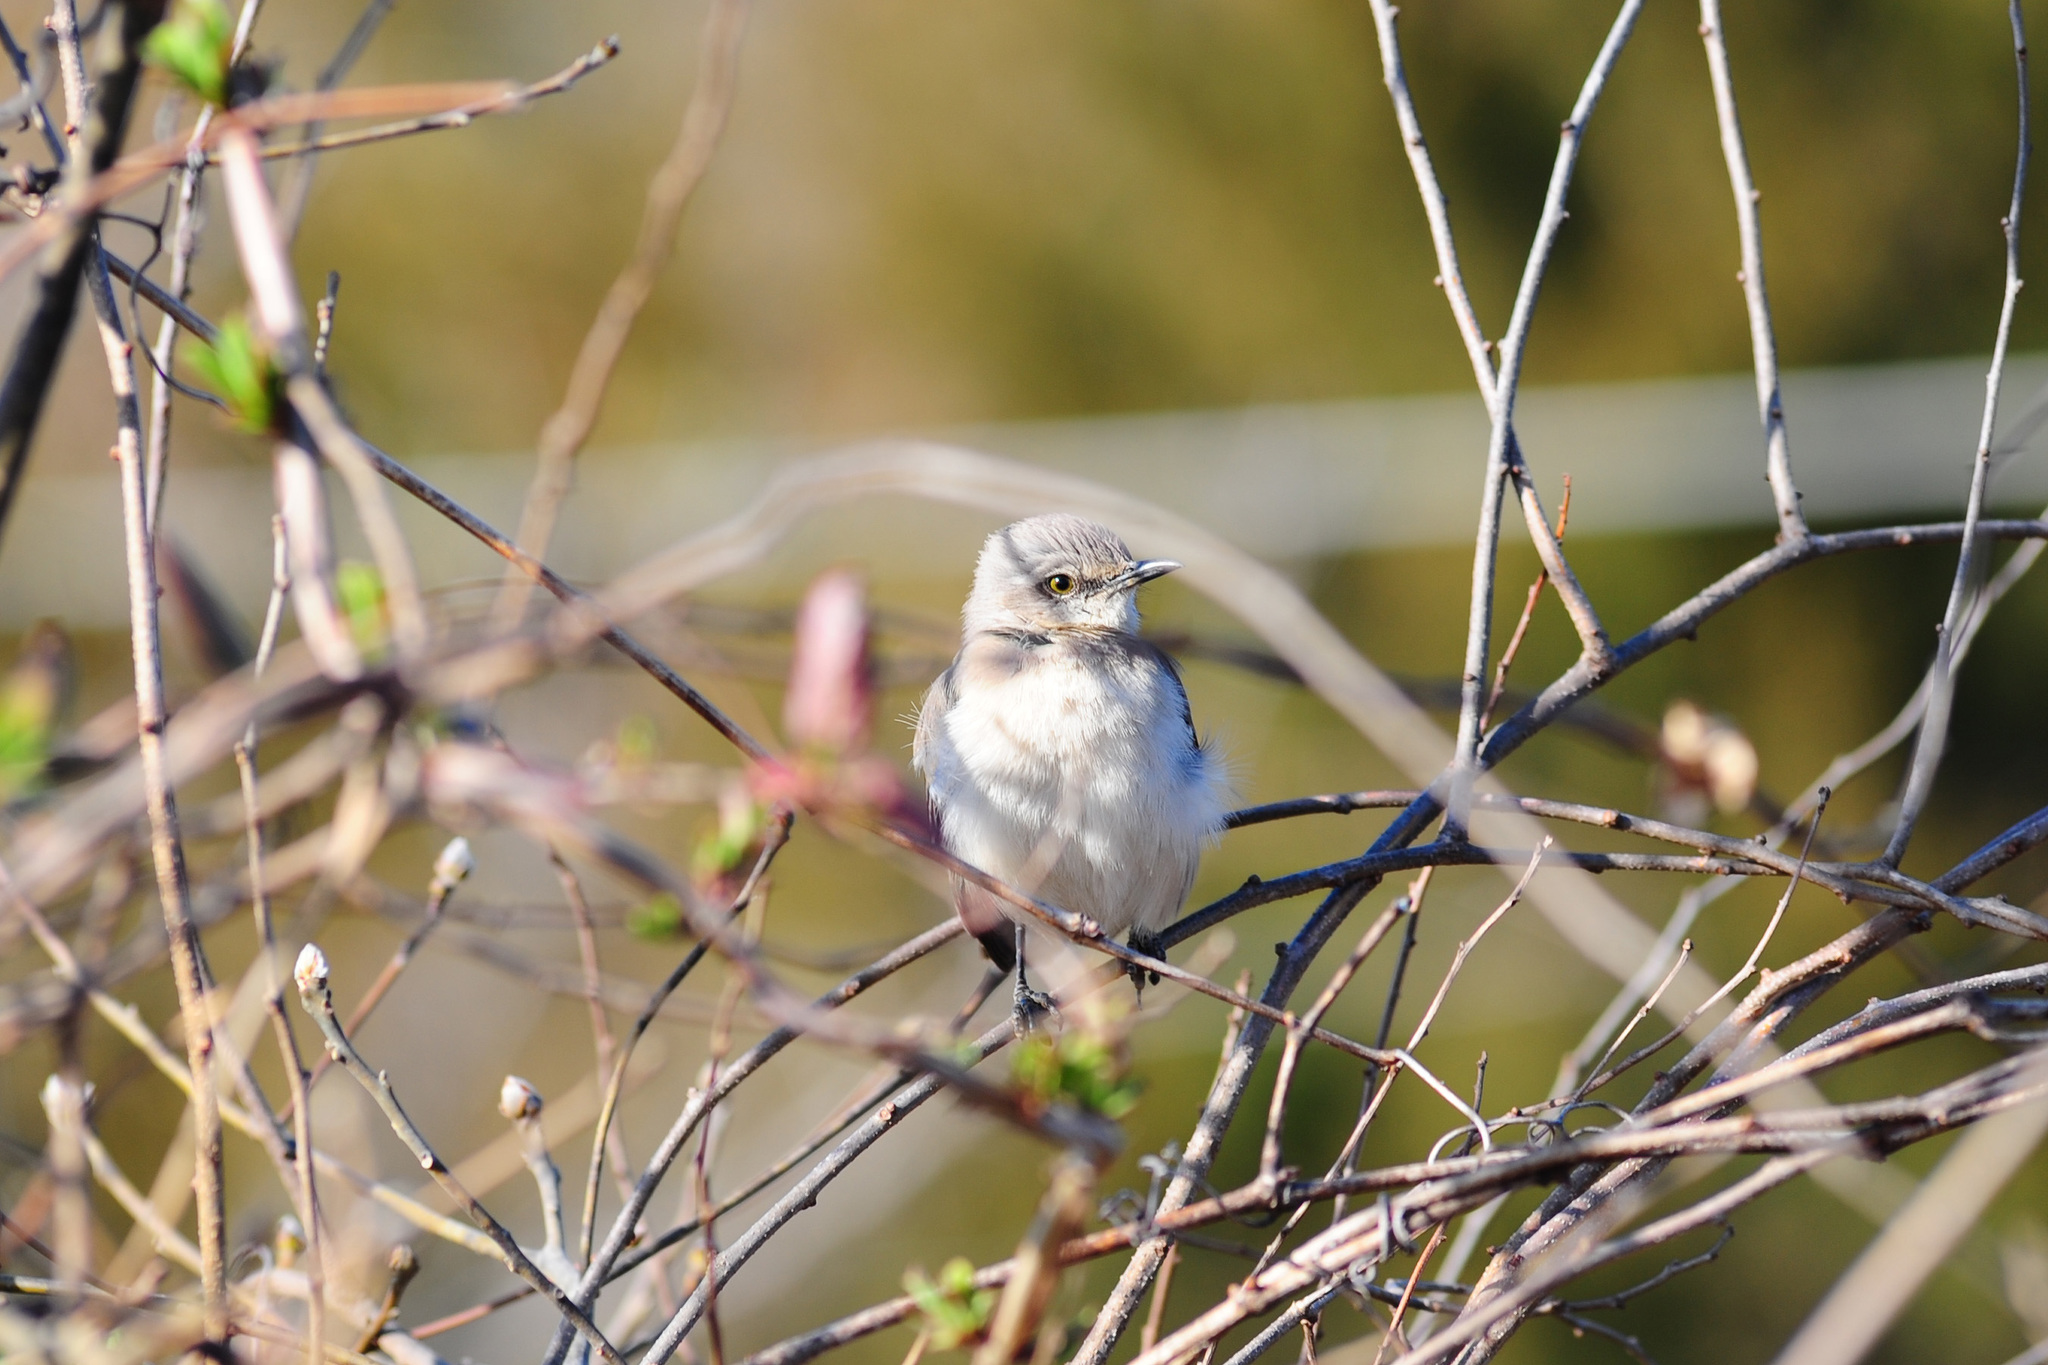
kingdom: Animalia
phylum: Chordata
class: Aves
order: Passeriformes
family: Mimidae
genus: Mimus
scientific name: Mimus polyglottos
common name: Northern mockingbird
